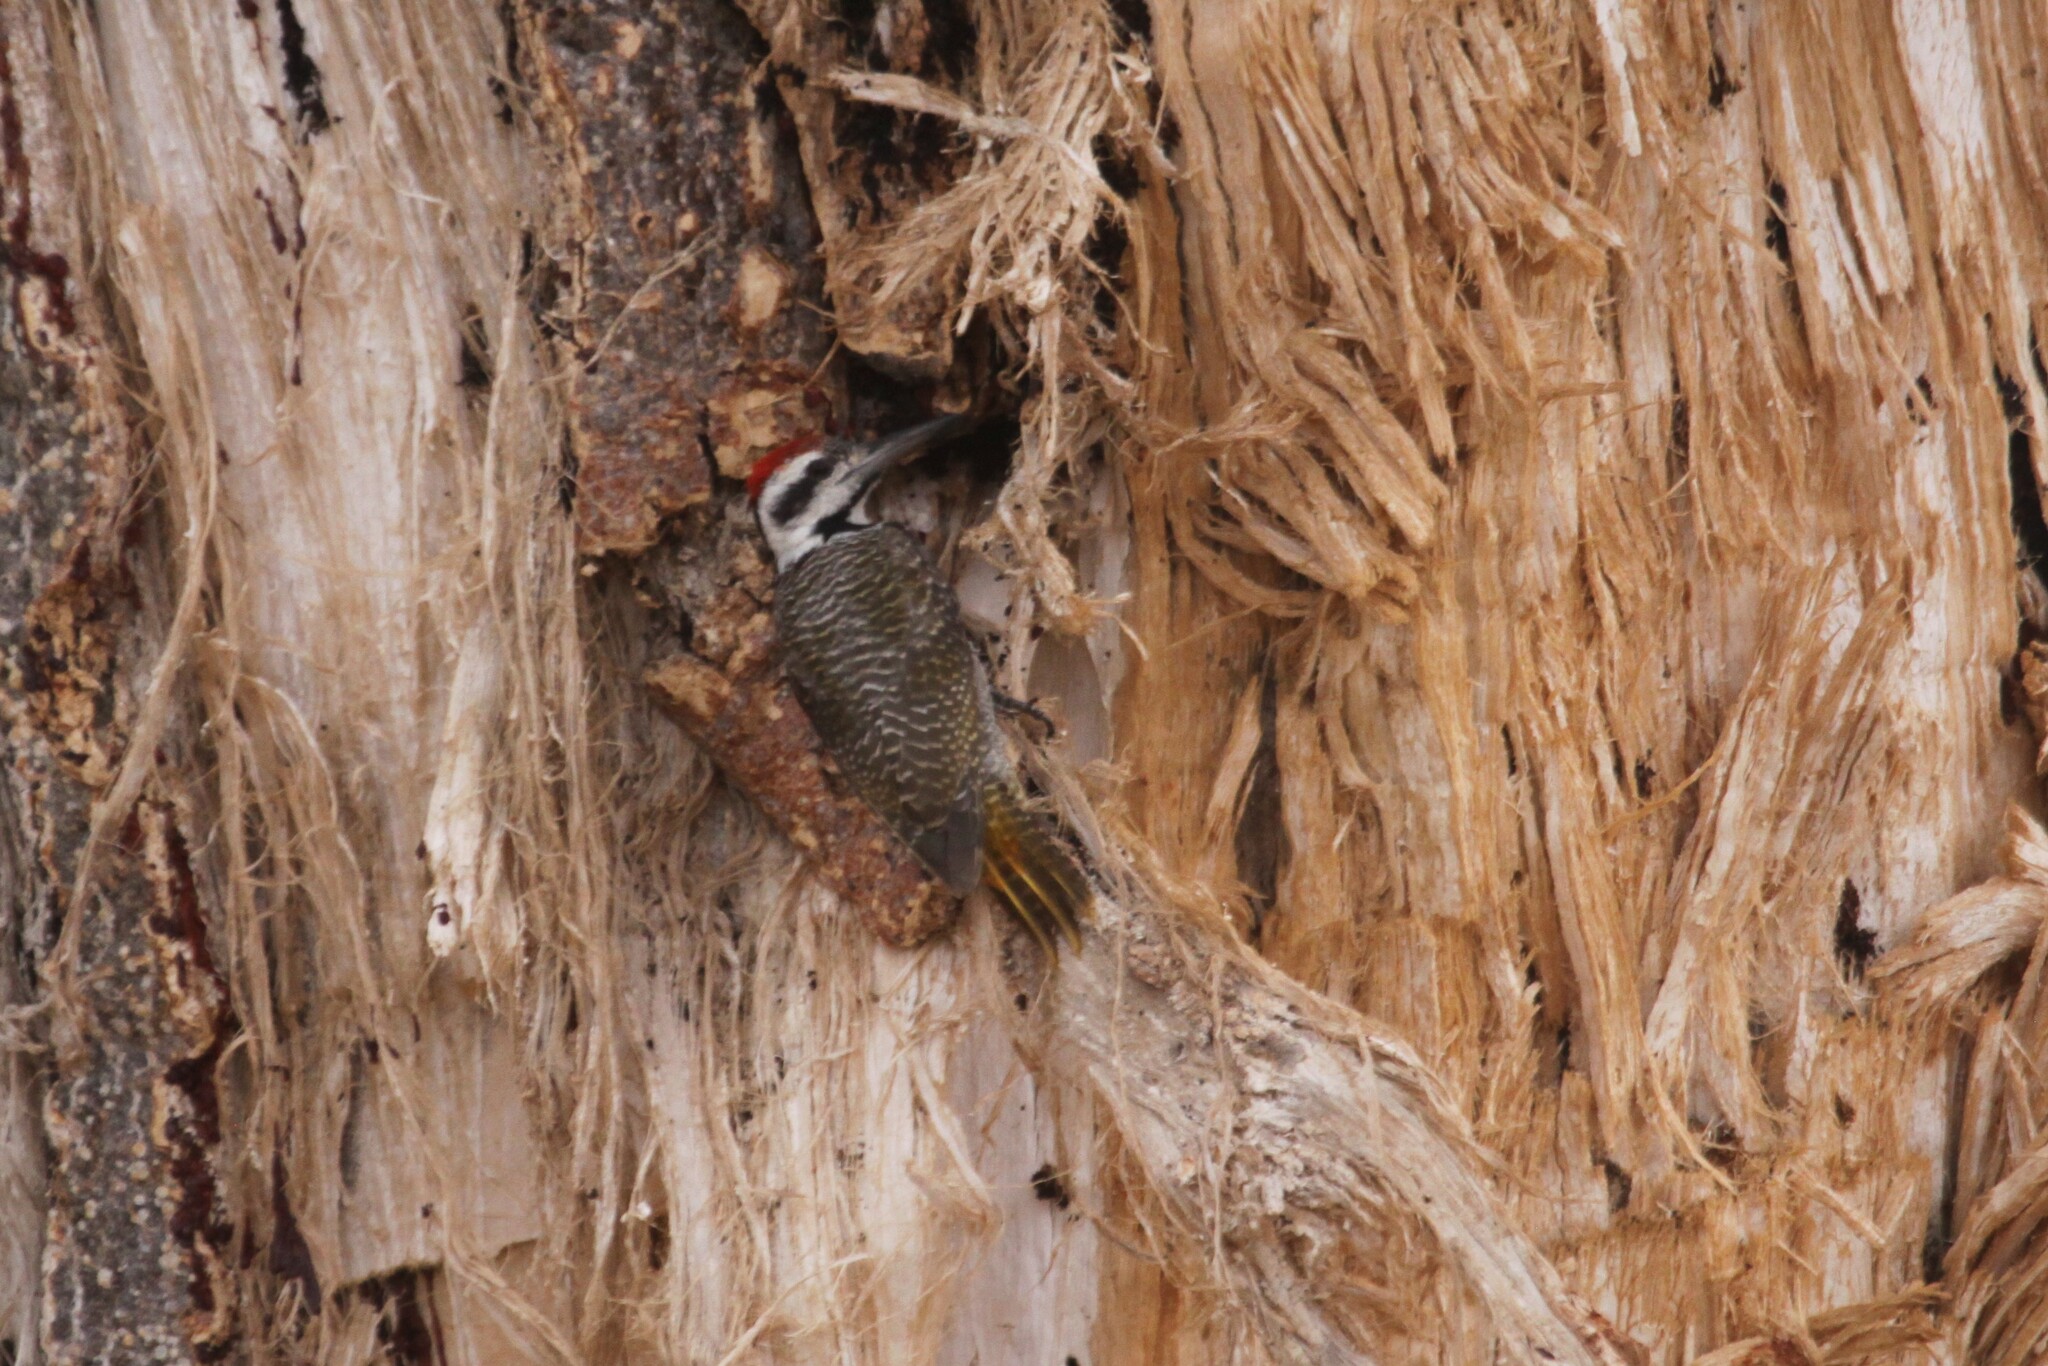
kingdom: Animalia
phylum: Chordata
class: Aves
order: Piciformes
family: Picidae
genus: Chloropicus
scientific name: Chloropicus namaquus
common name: Bearded woodpecker
